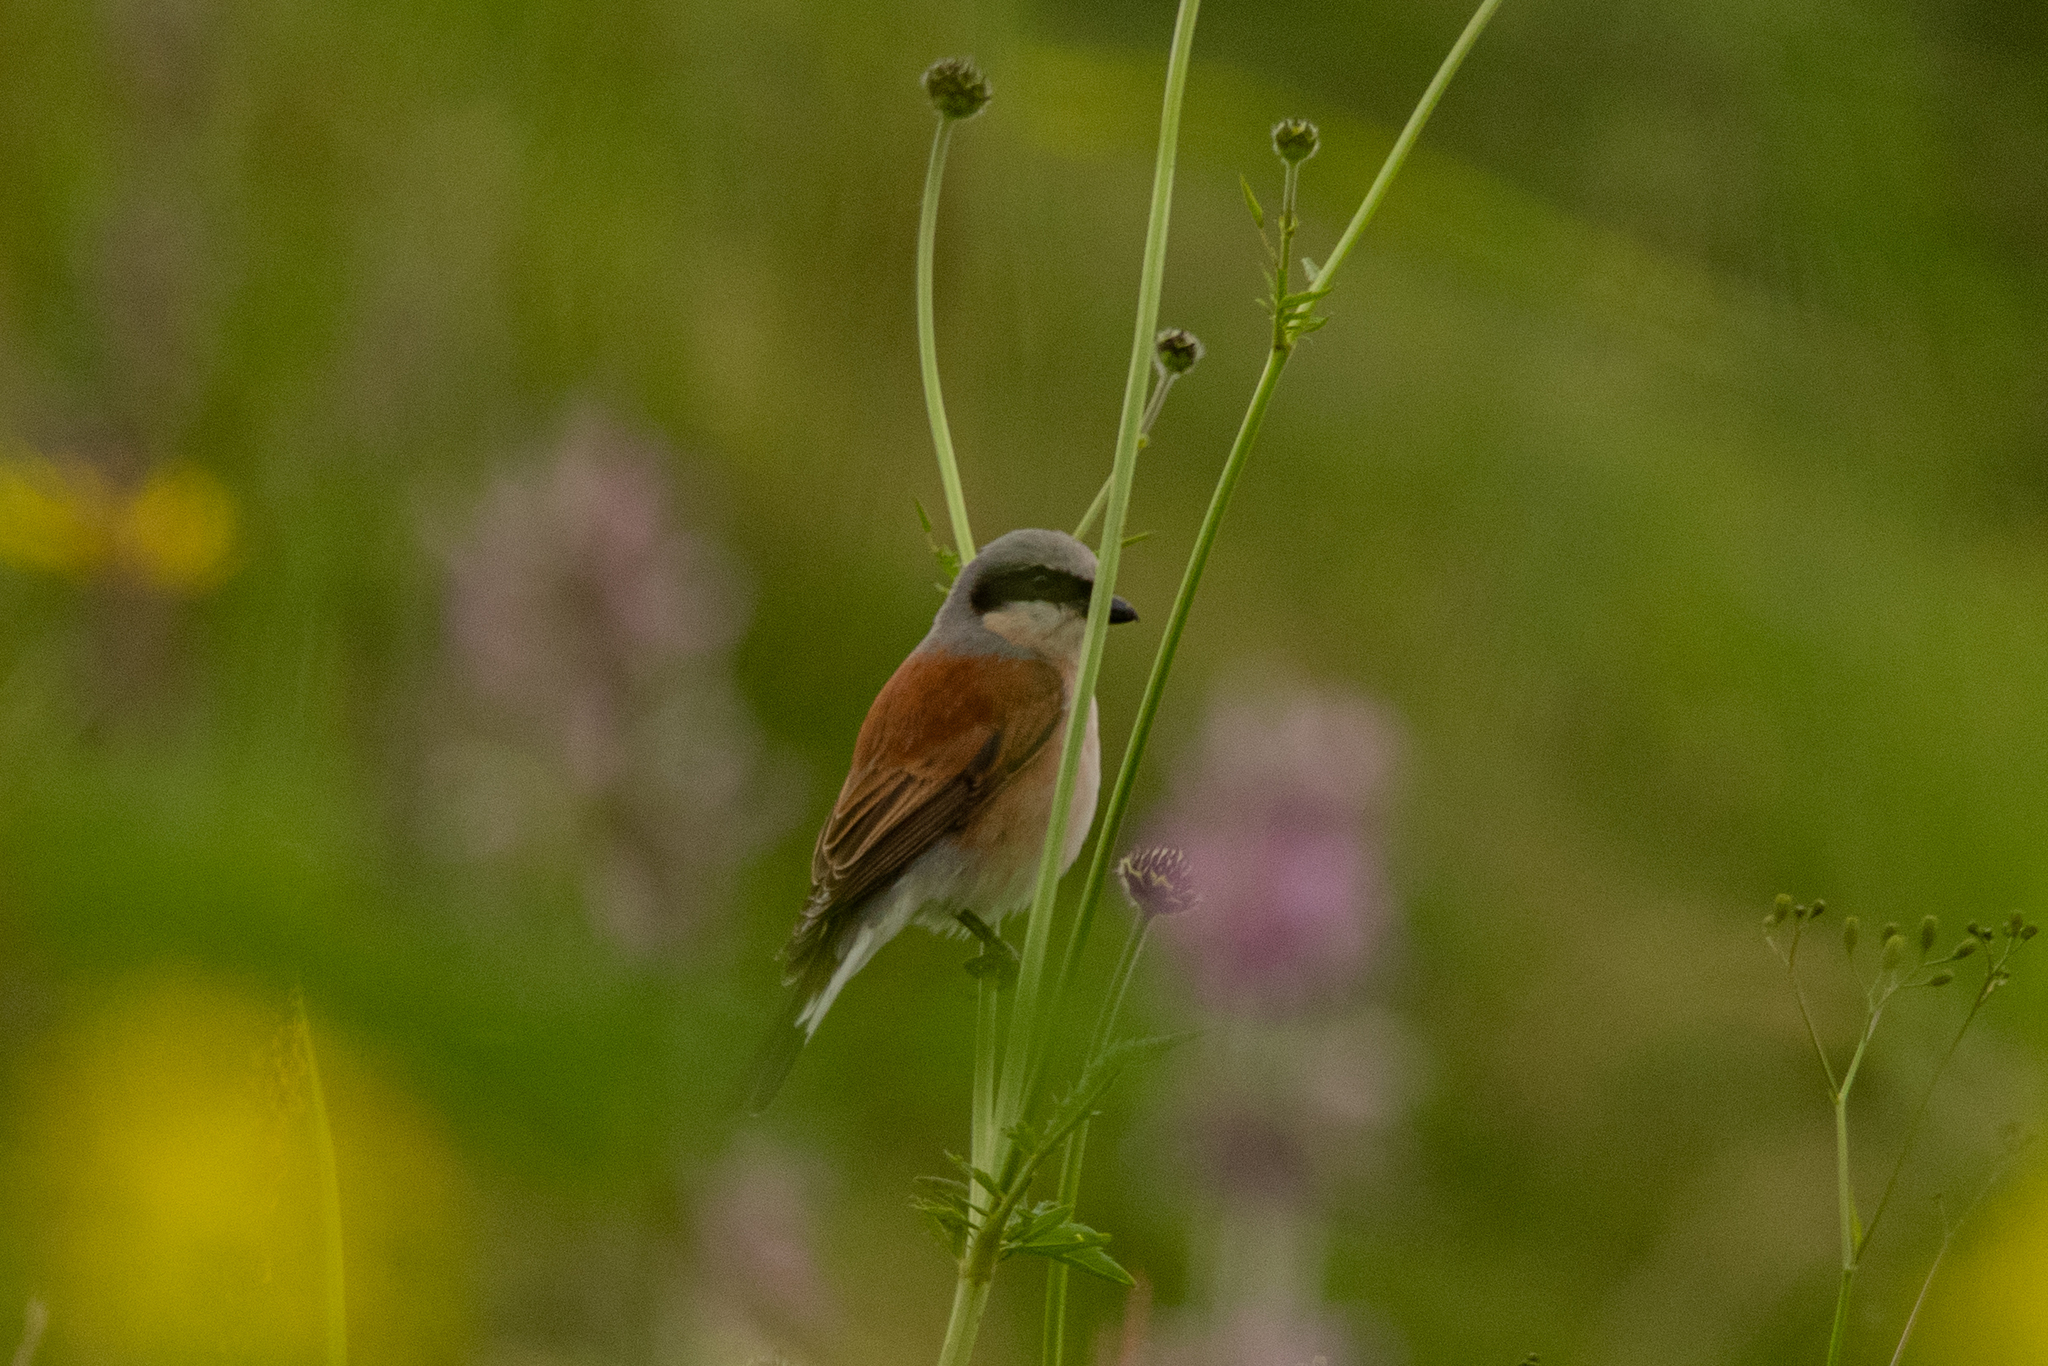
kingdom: Animalia
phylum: Chordata
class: Aves
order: Passeriformes
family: Laniidae
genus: Lanius
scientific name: Lanius collurio
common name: Red-backed shrike
